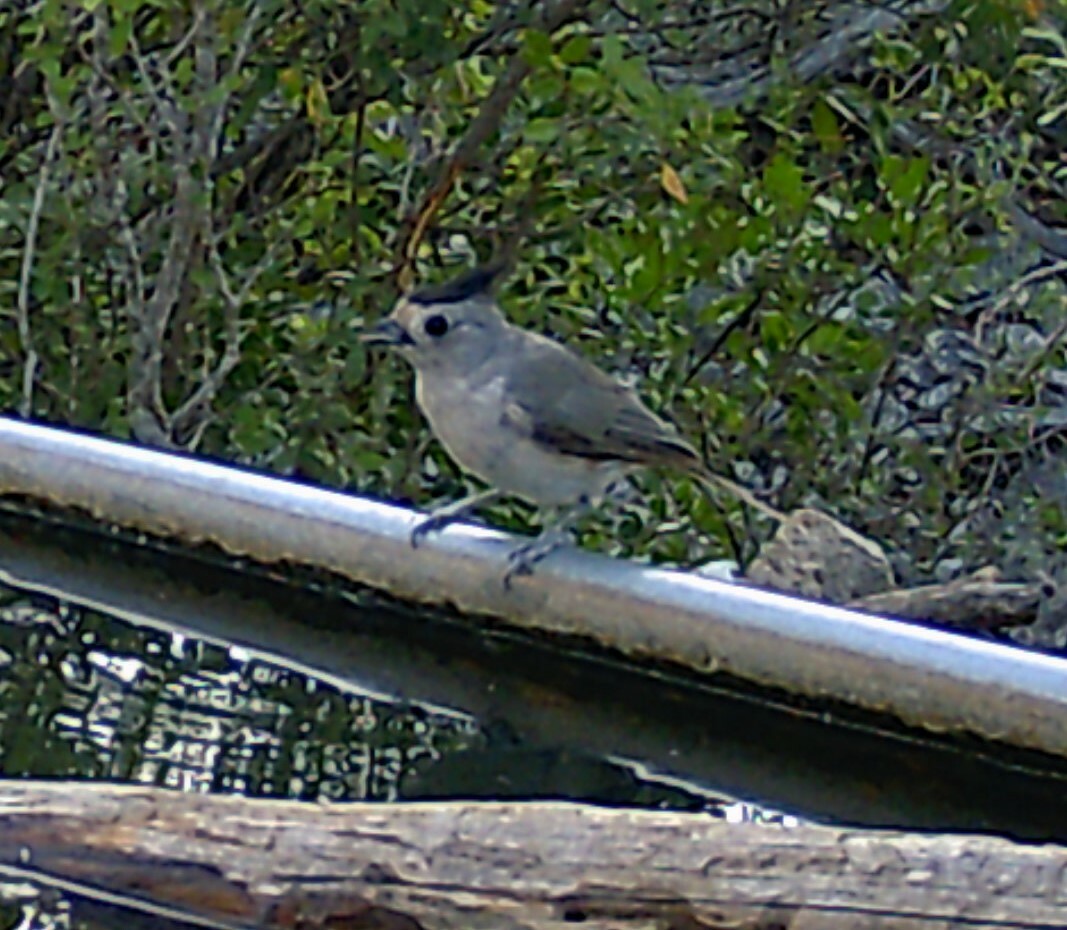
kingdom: Animalia
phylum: Chordata
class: Aves
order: Passeriformes
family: Paridae
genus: Baeolophus
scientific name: Baeolophus atricristatus
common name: Black-crested titmouse
